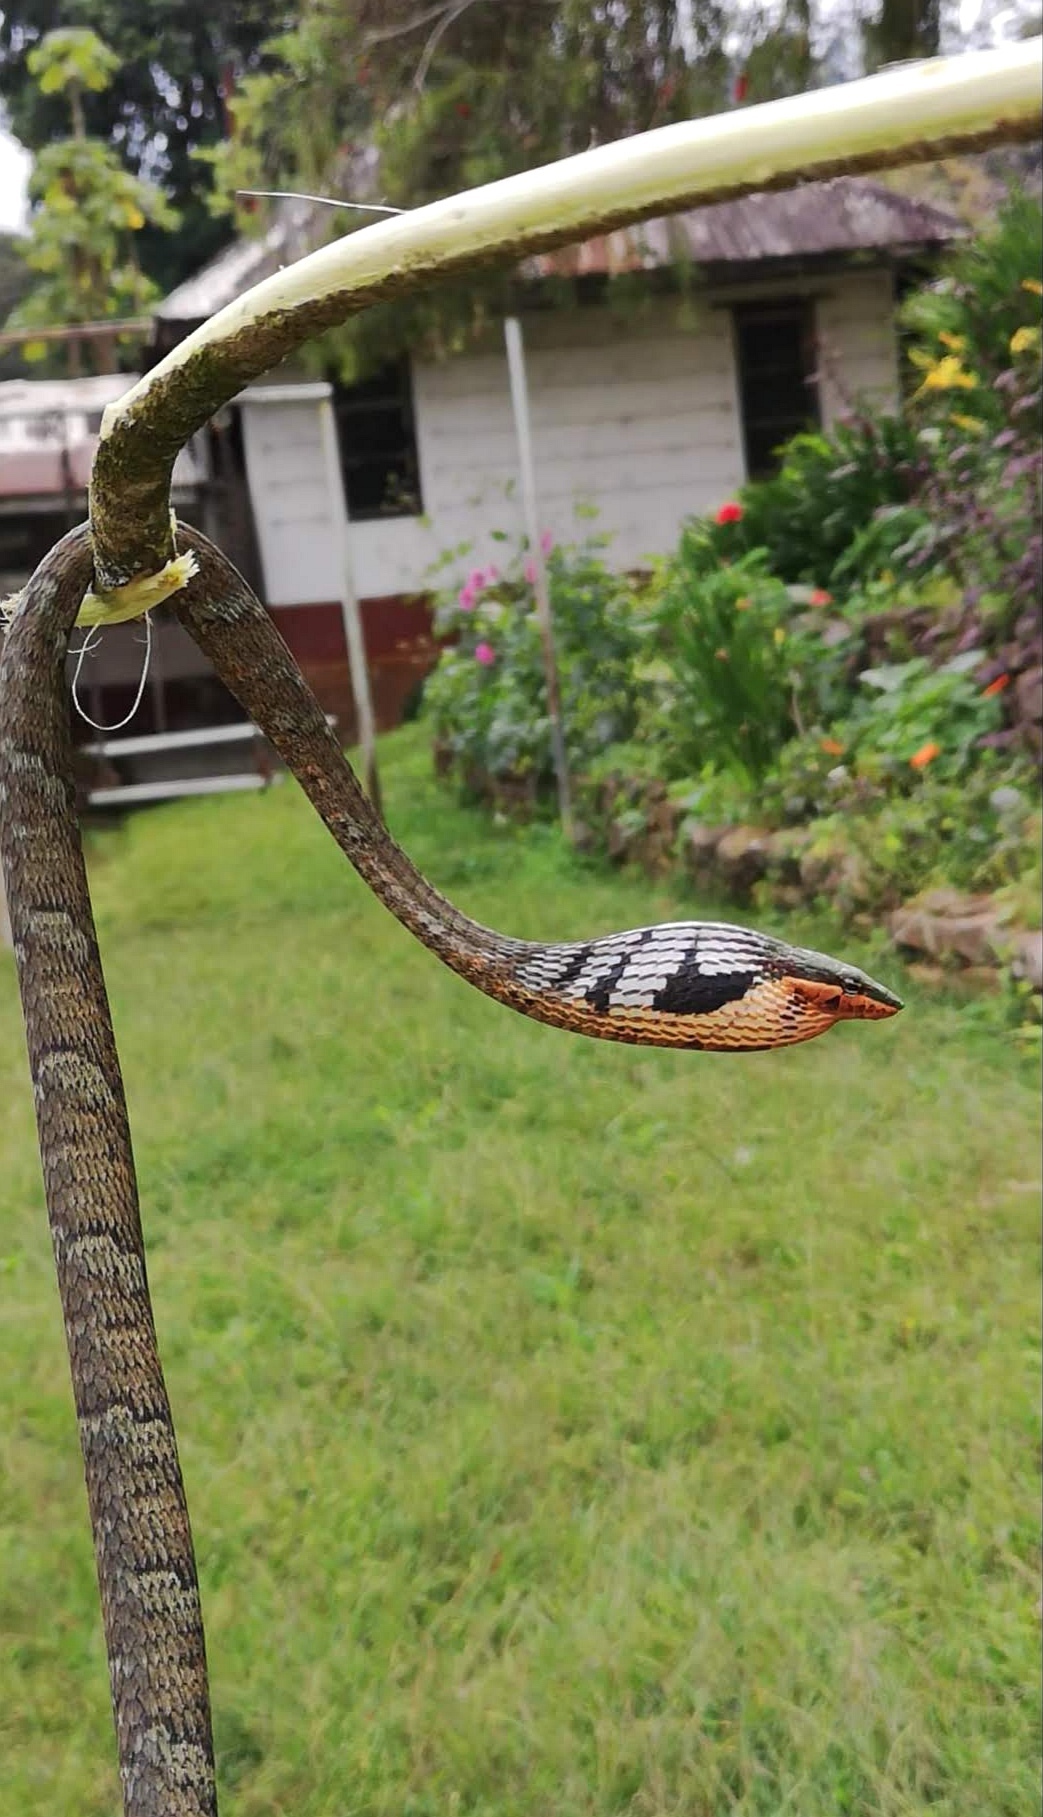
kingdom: Animalia
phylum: Chordata
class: Squamata
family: Colubridae
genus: Thelotornis
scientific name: Thelotornis usambaricus
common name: Usambara vine snake
